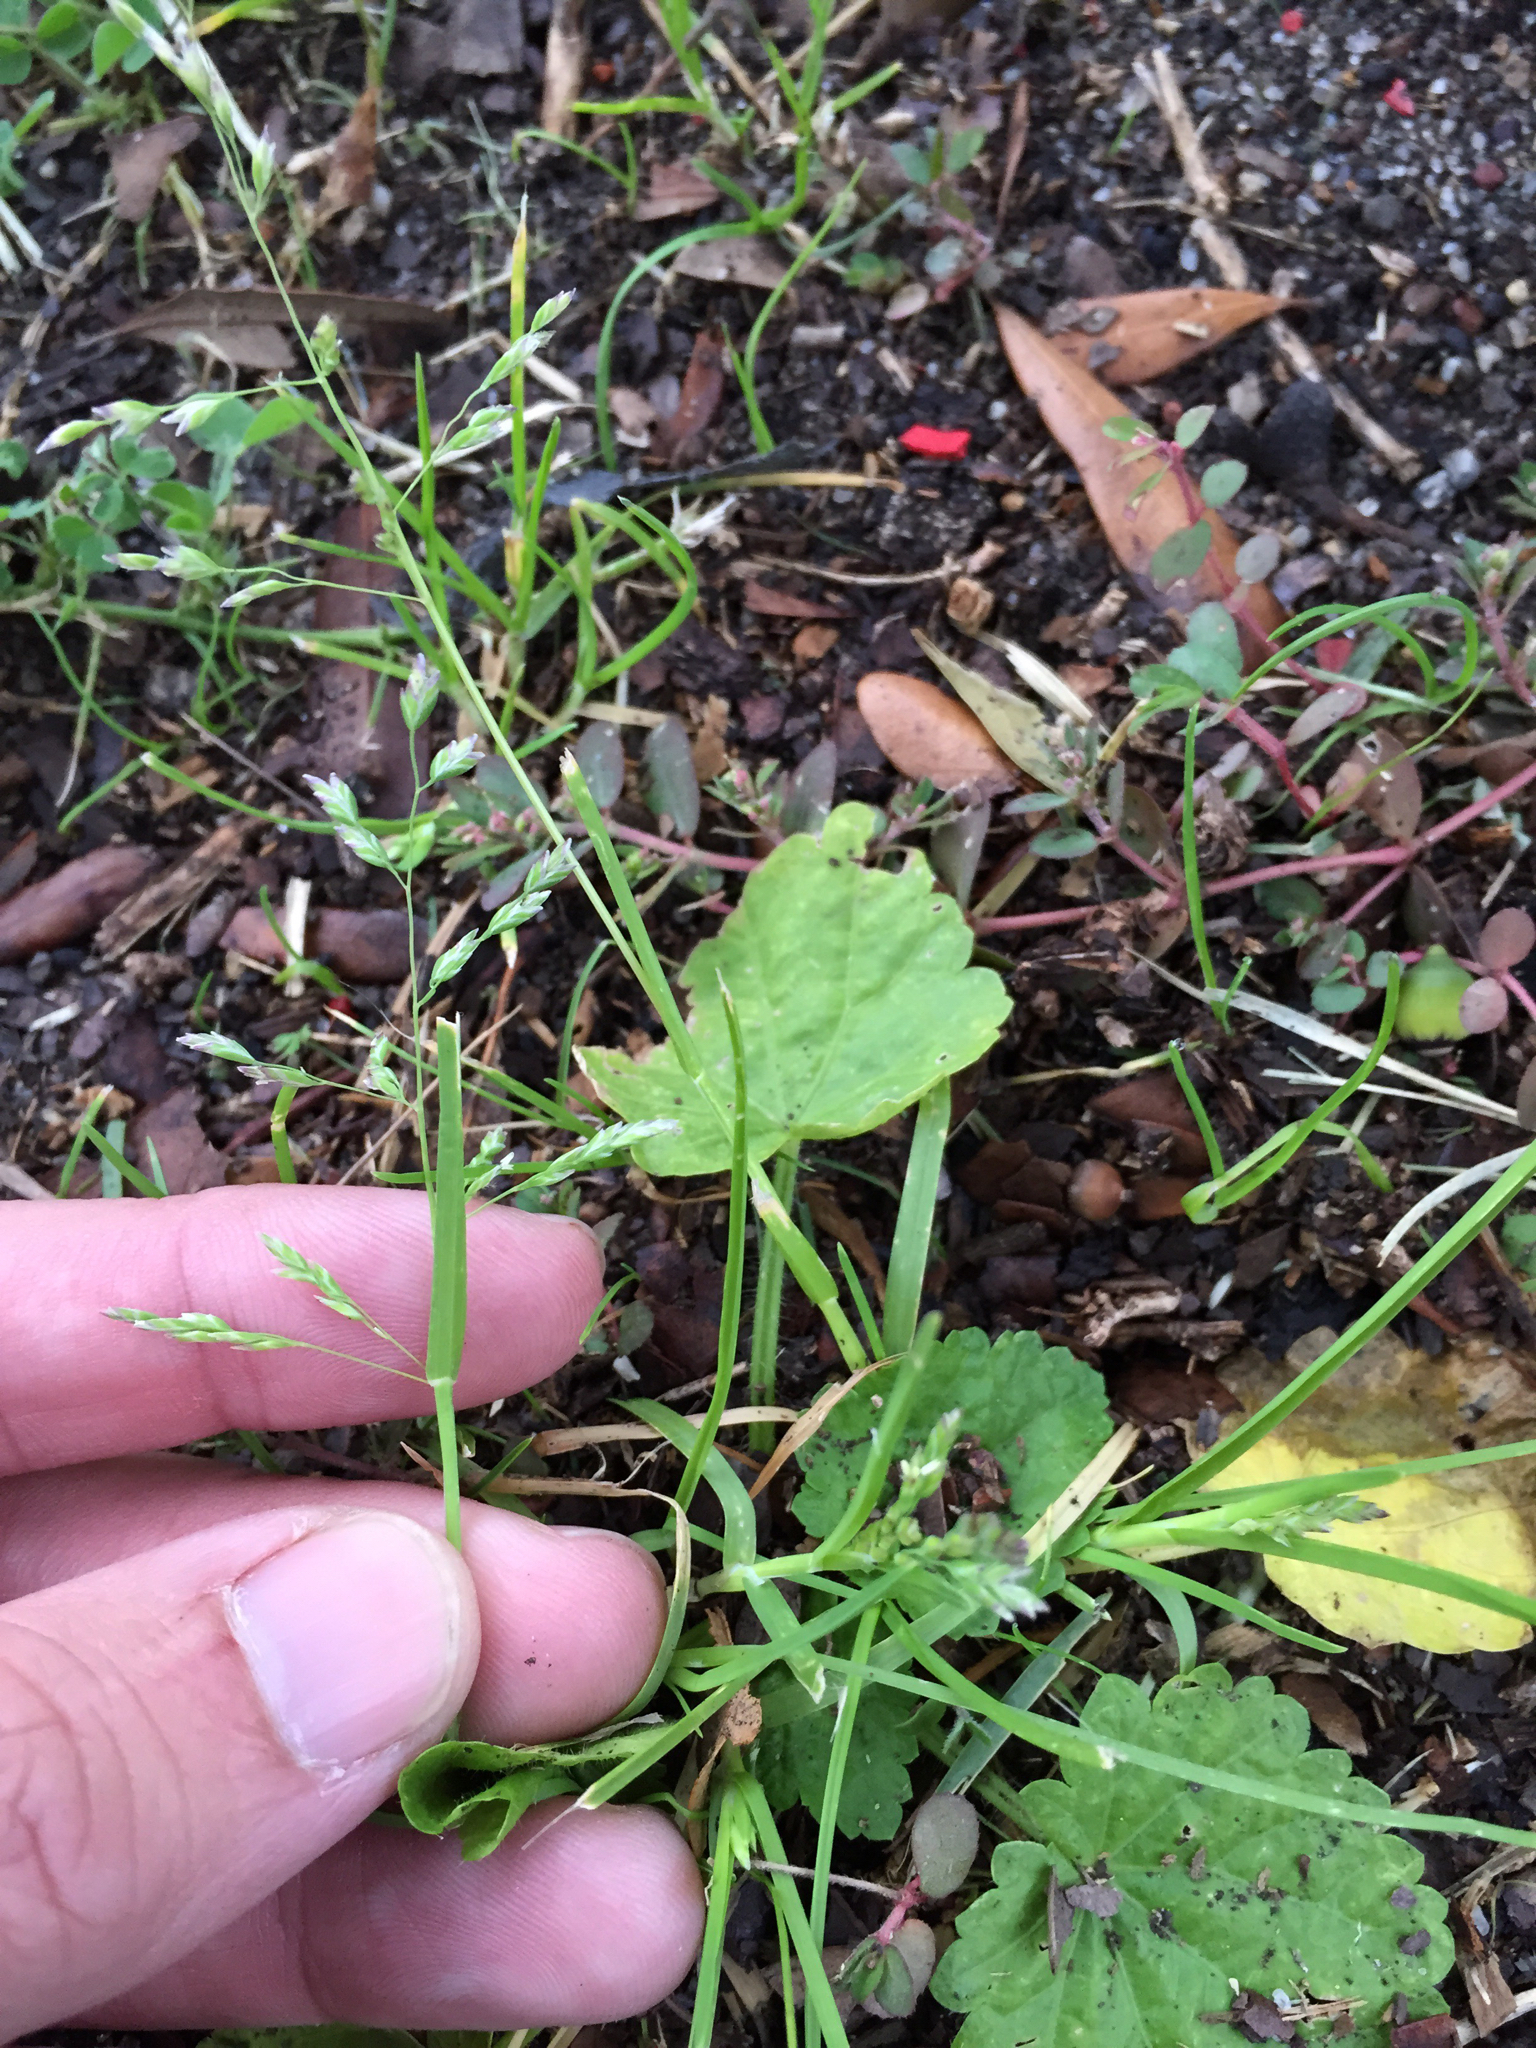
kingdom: Plantae
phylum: Tracheophyta
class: Liliopsida
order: Poales
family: Poaceae
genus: Poa
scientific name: Poa annua
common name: Annual bluegrass
